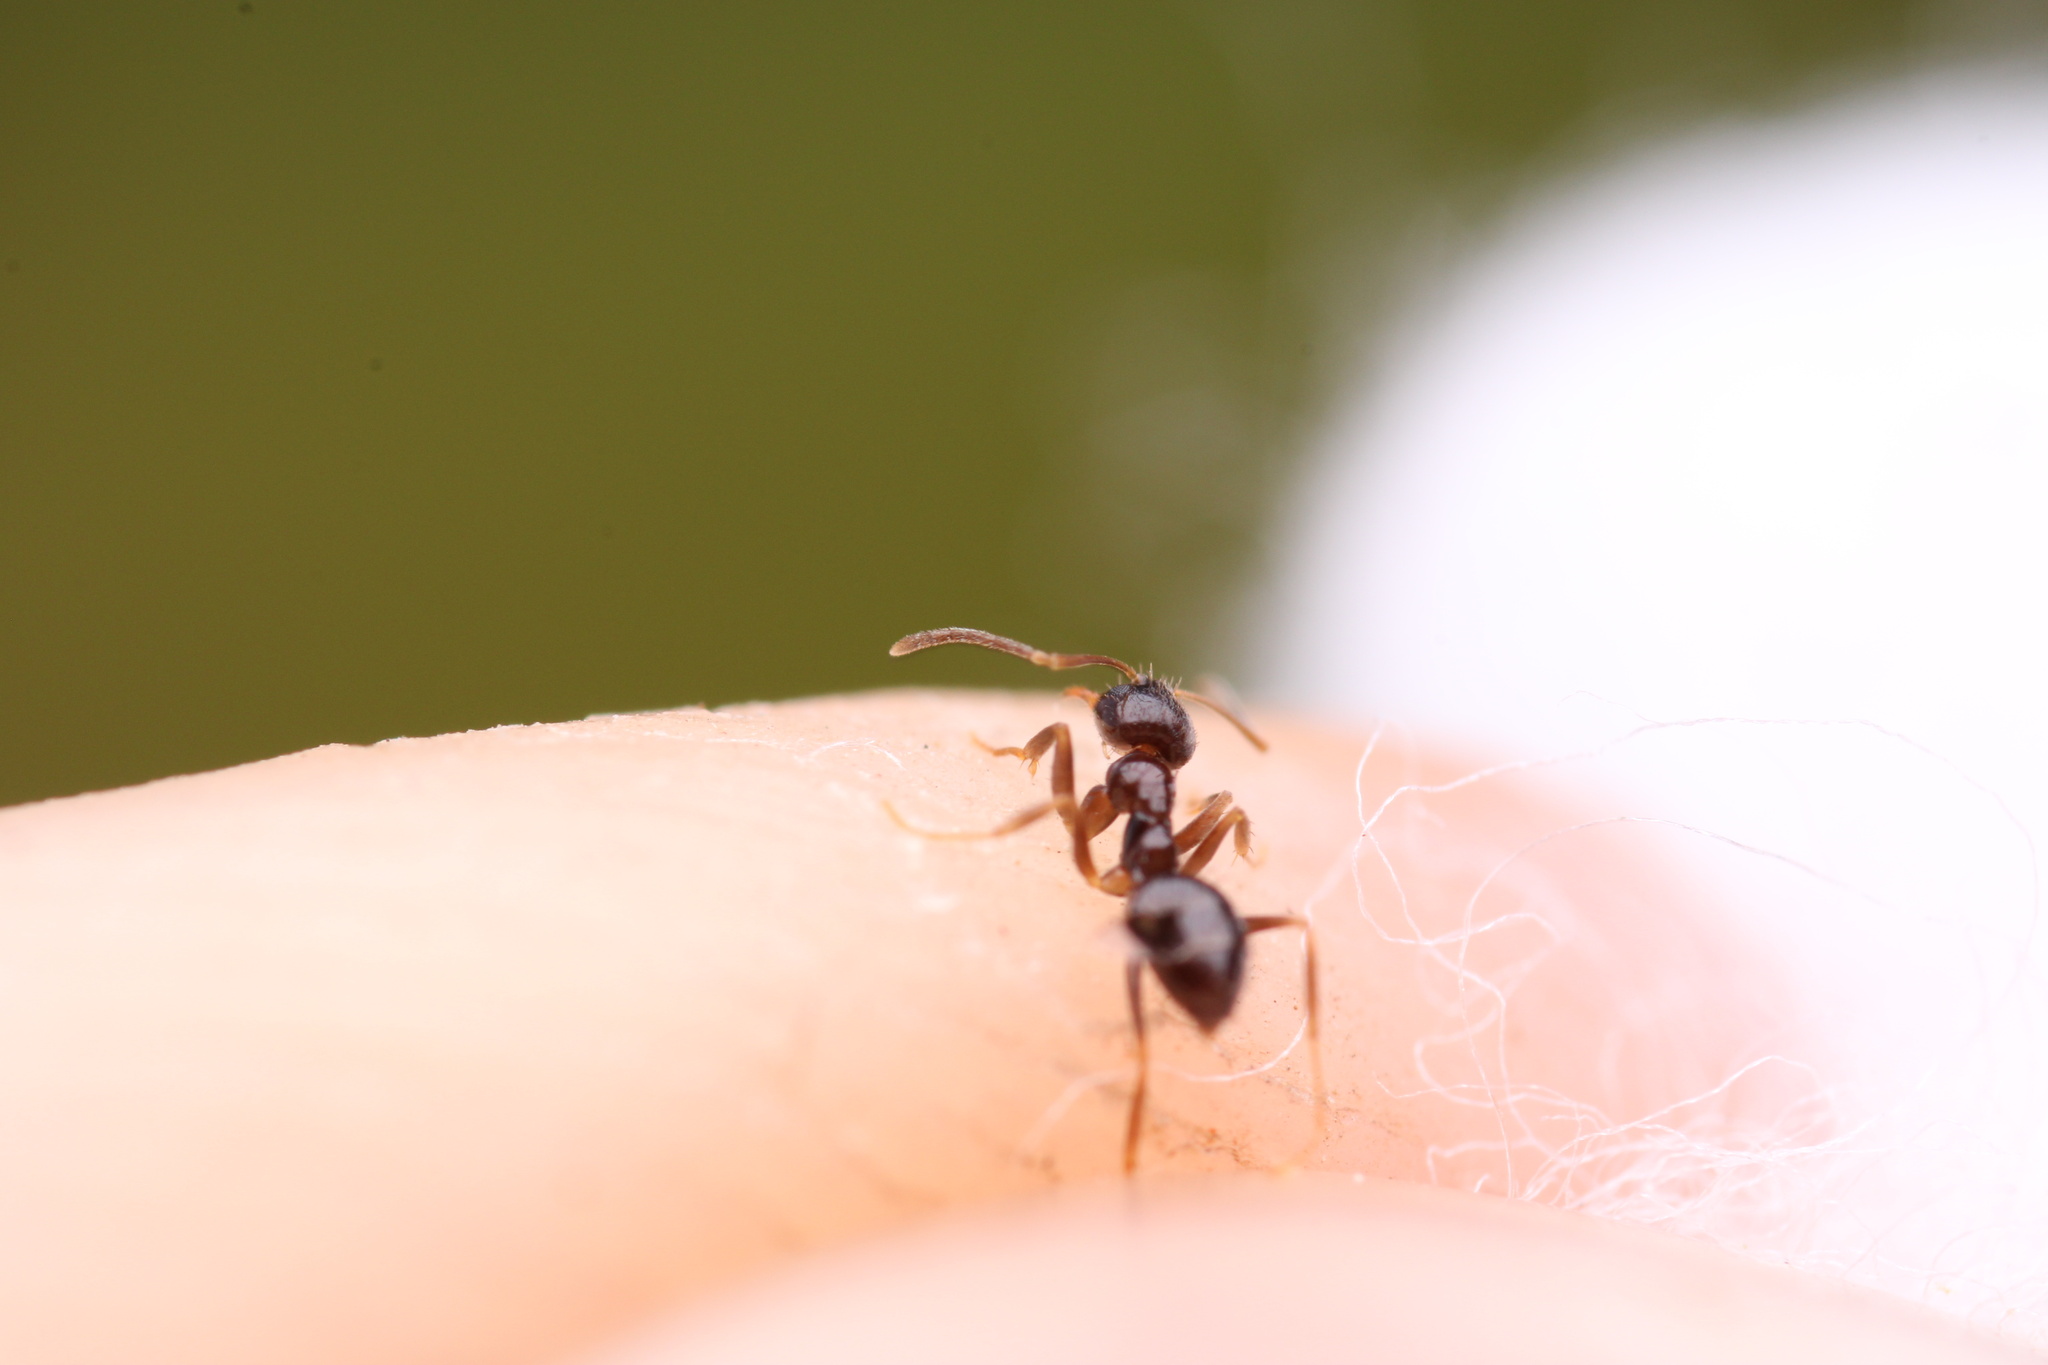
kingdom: Animalia
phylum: Arthropoda
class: Insecta
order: Hymenoptera
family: Formicidae
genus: Nylanderia
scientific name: Nylanderia parvula
